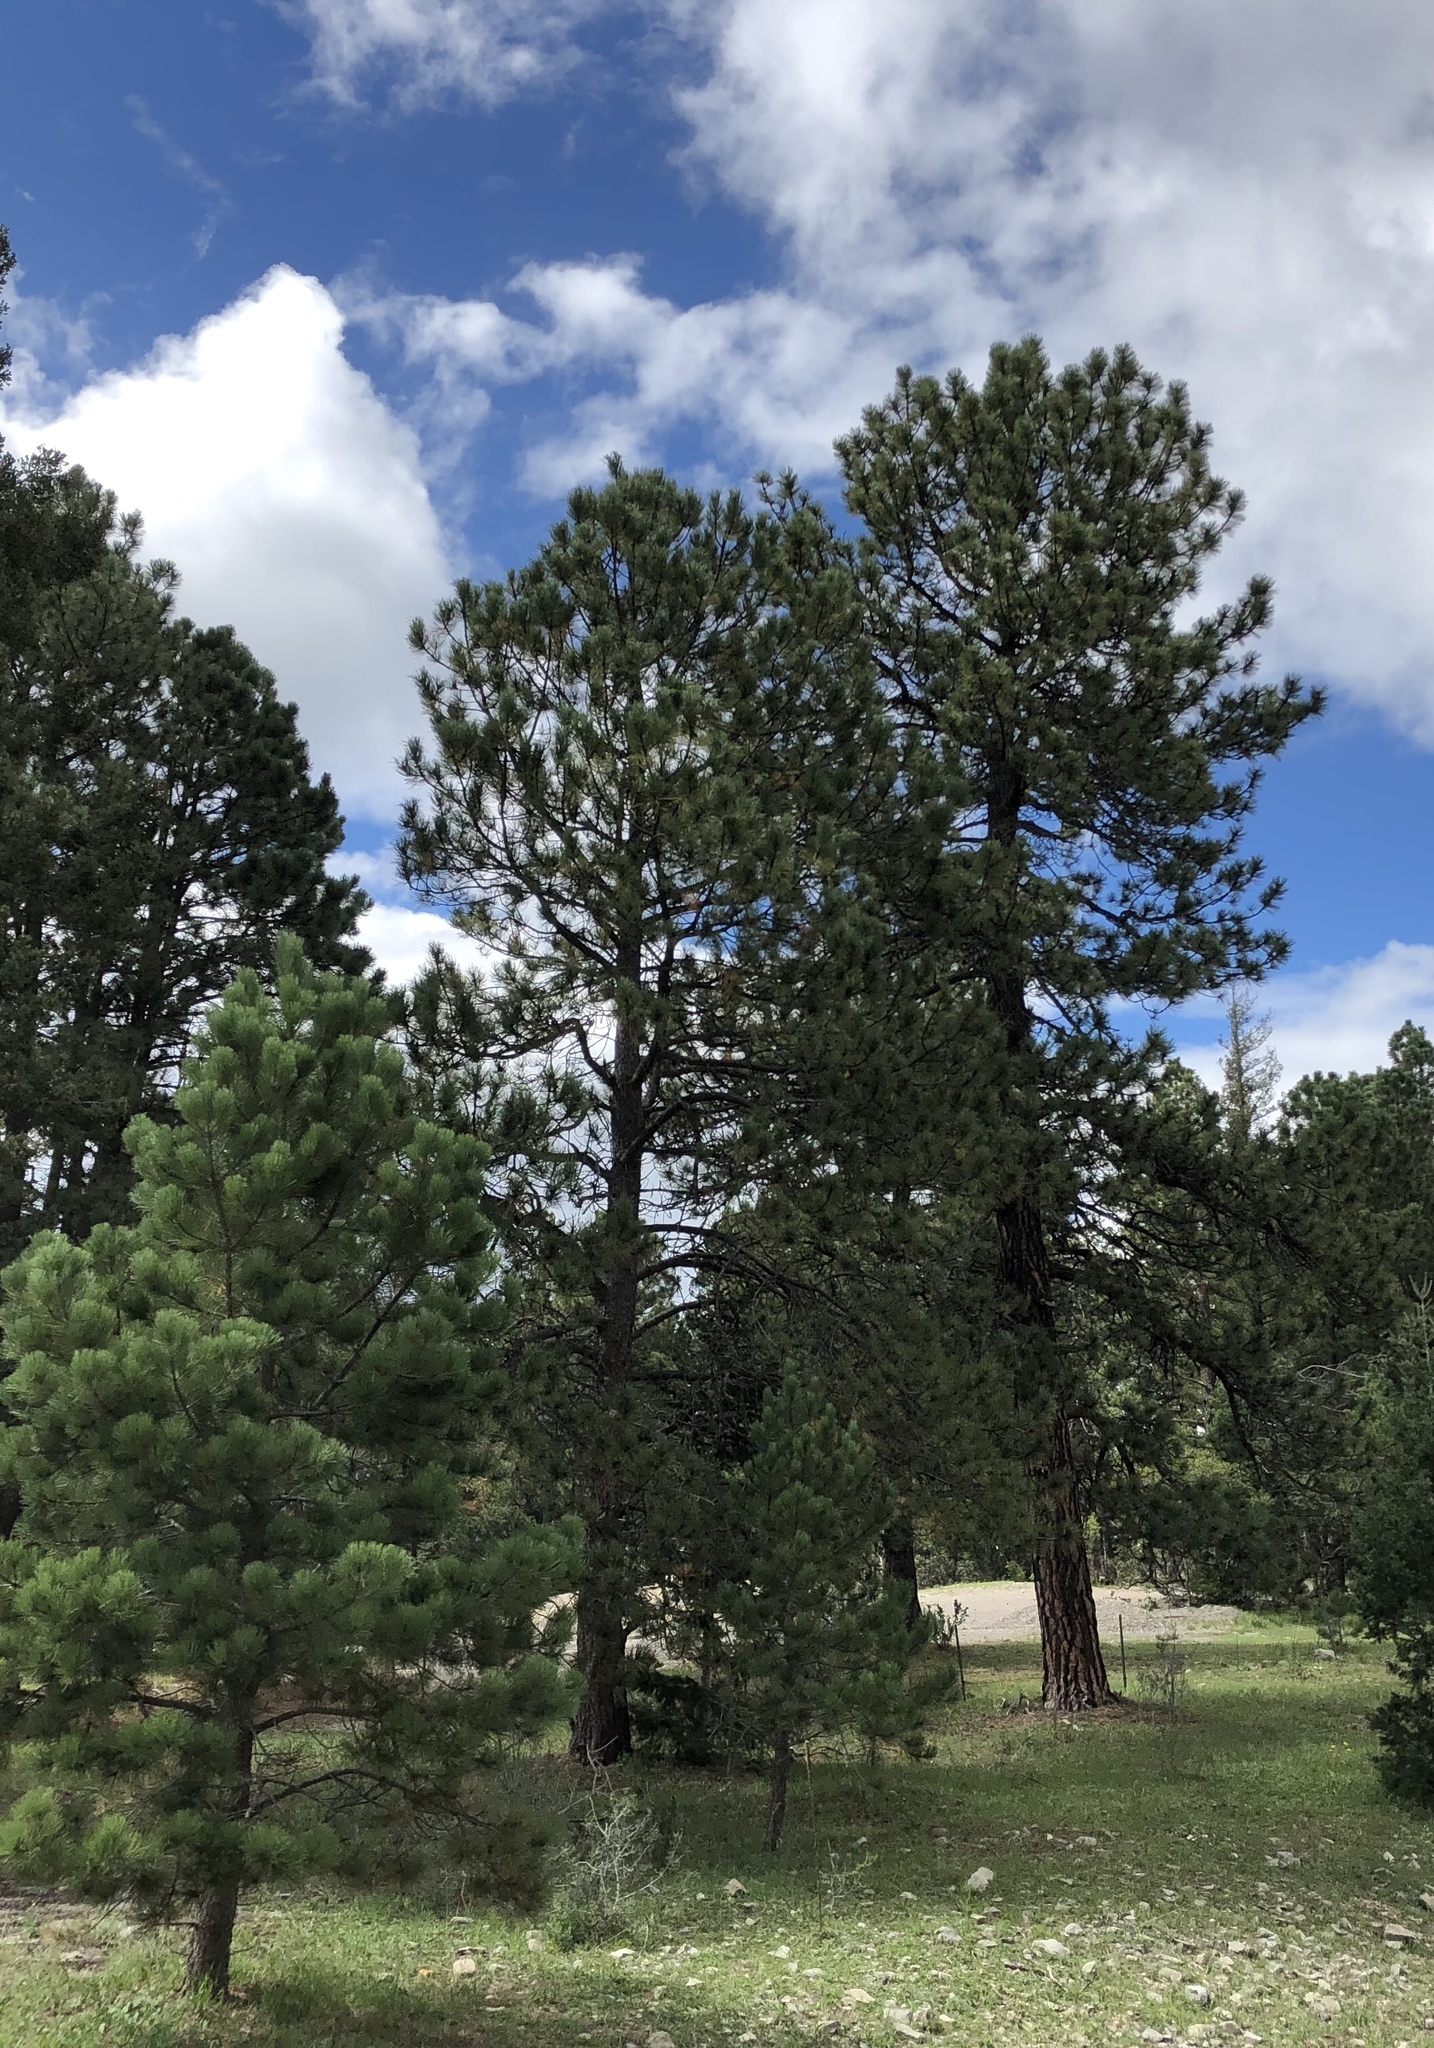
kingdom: Plantae
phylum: Tracheophyta
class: Pinopsida
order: Pinales
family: Pinaceae
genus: Pinus
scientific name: Pinus ponderosa
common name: Western yellow-pine
